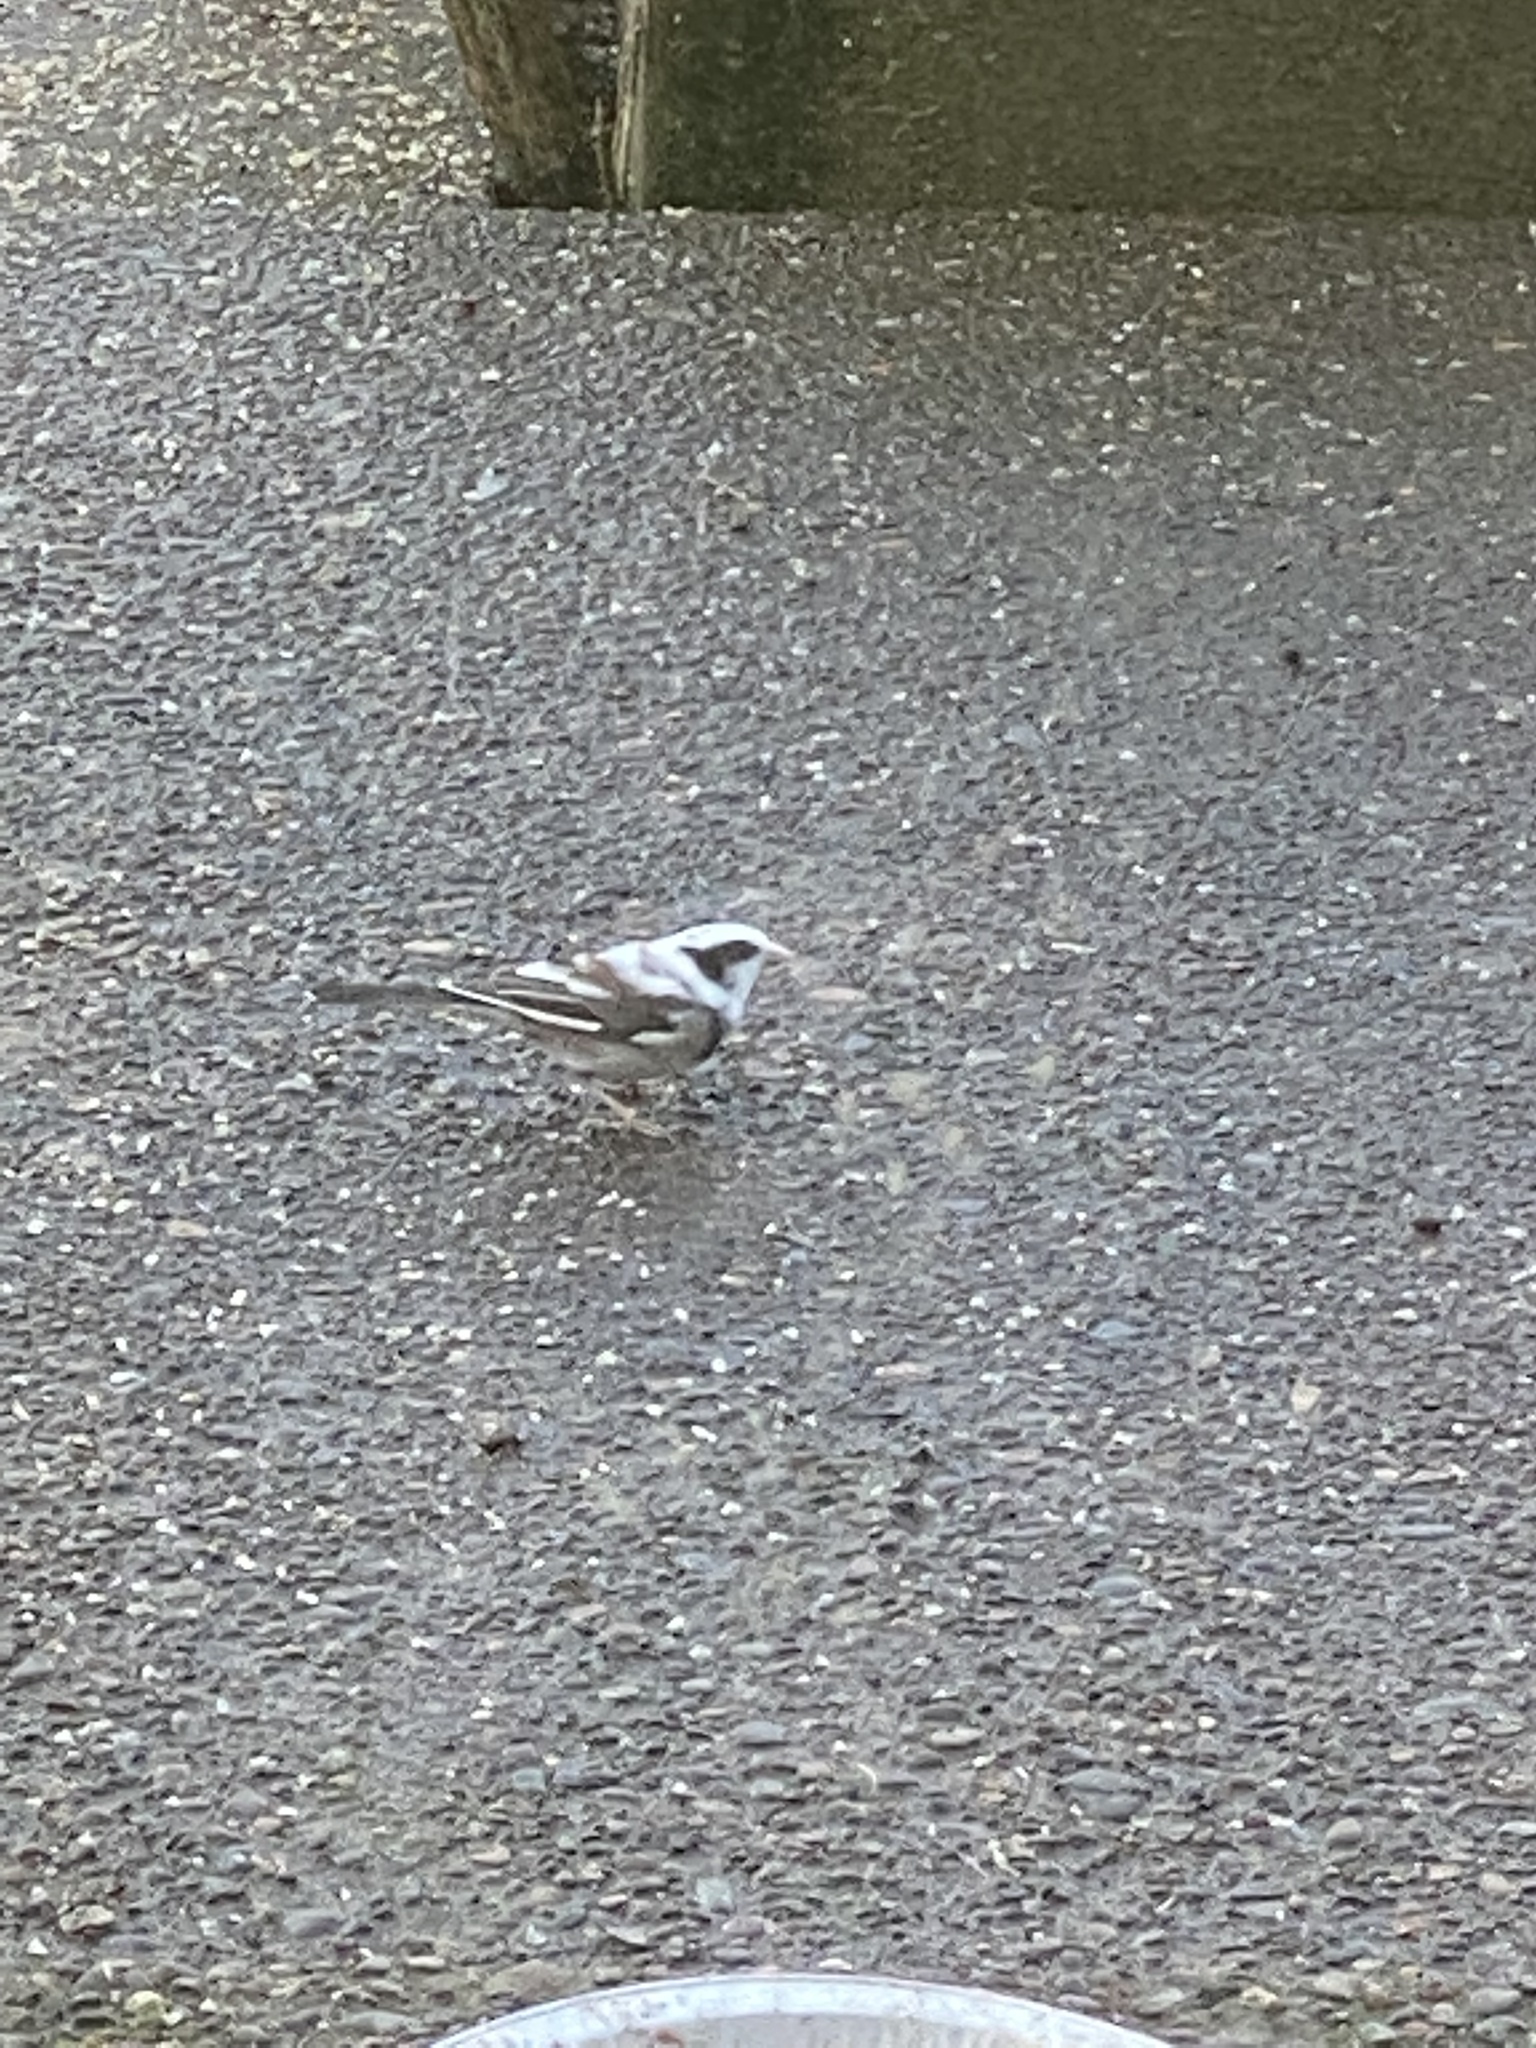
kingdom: Animalia
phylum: Chordata
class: Aves
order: Passeriformes
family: Passerellidae
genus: Junco
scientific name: Junco hyemalis
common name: Dark-eyed junco
